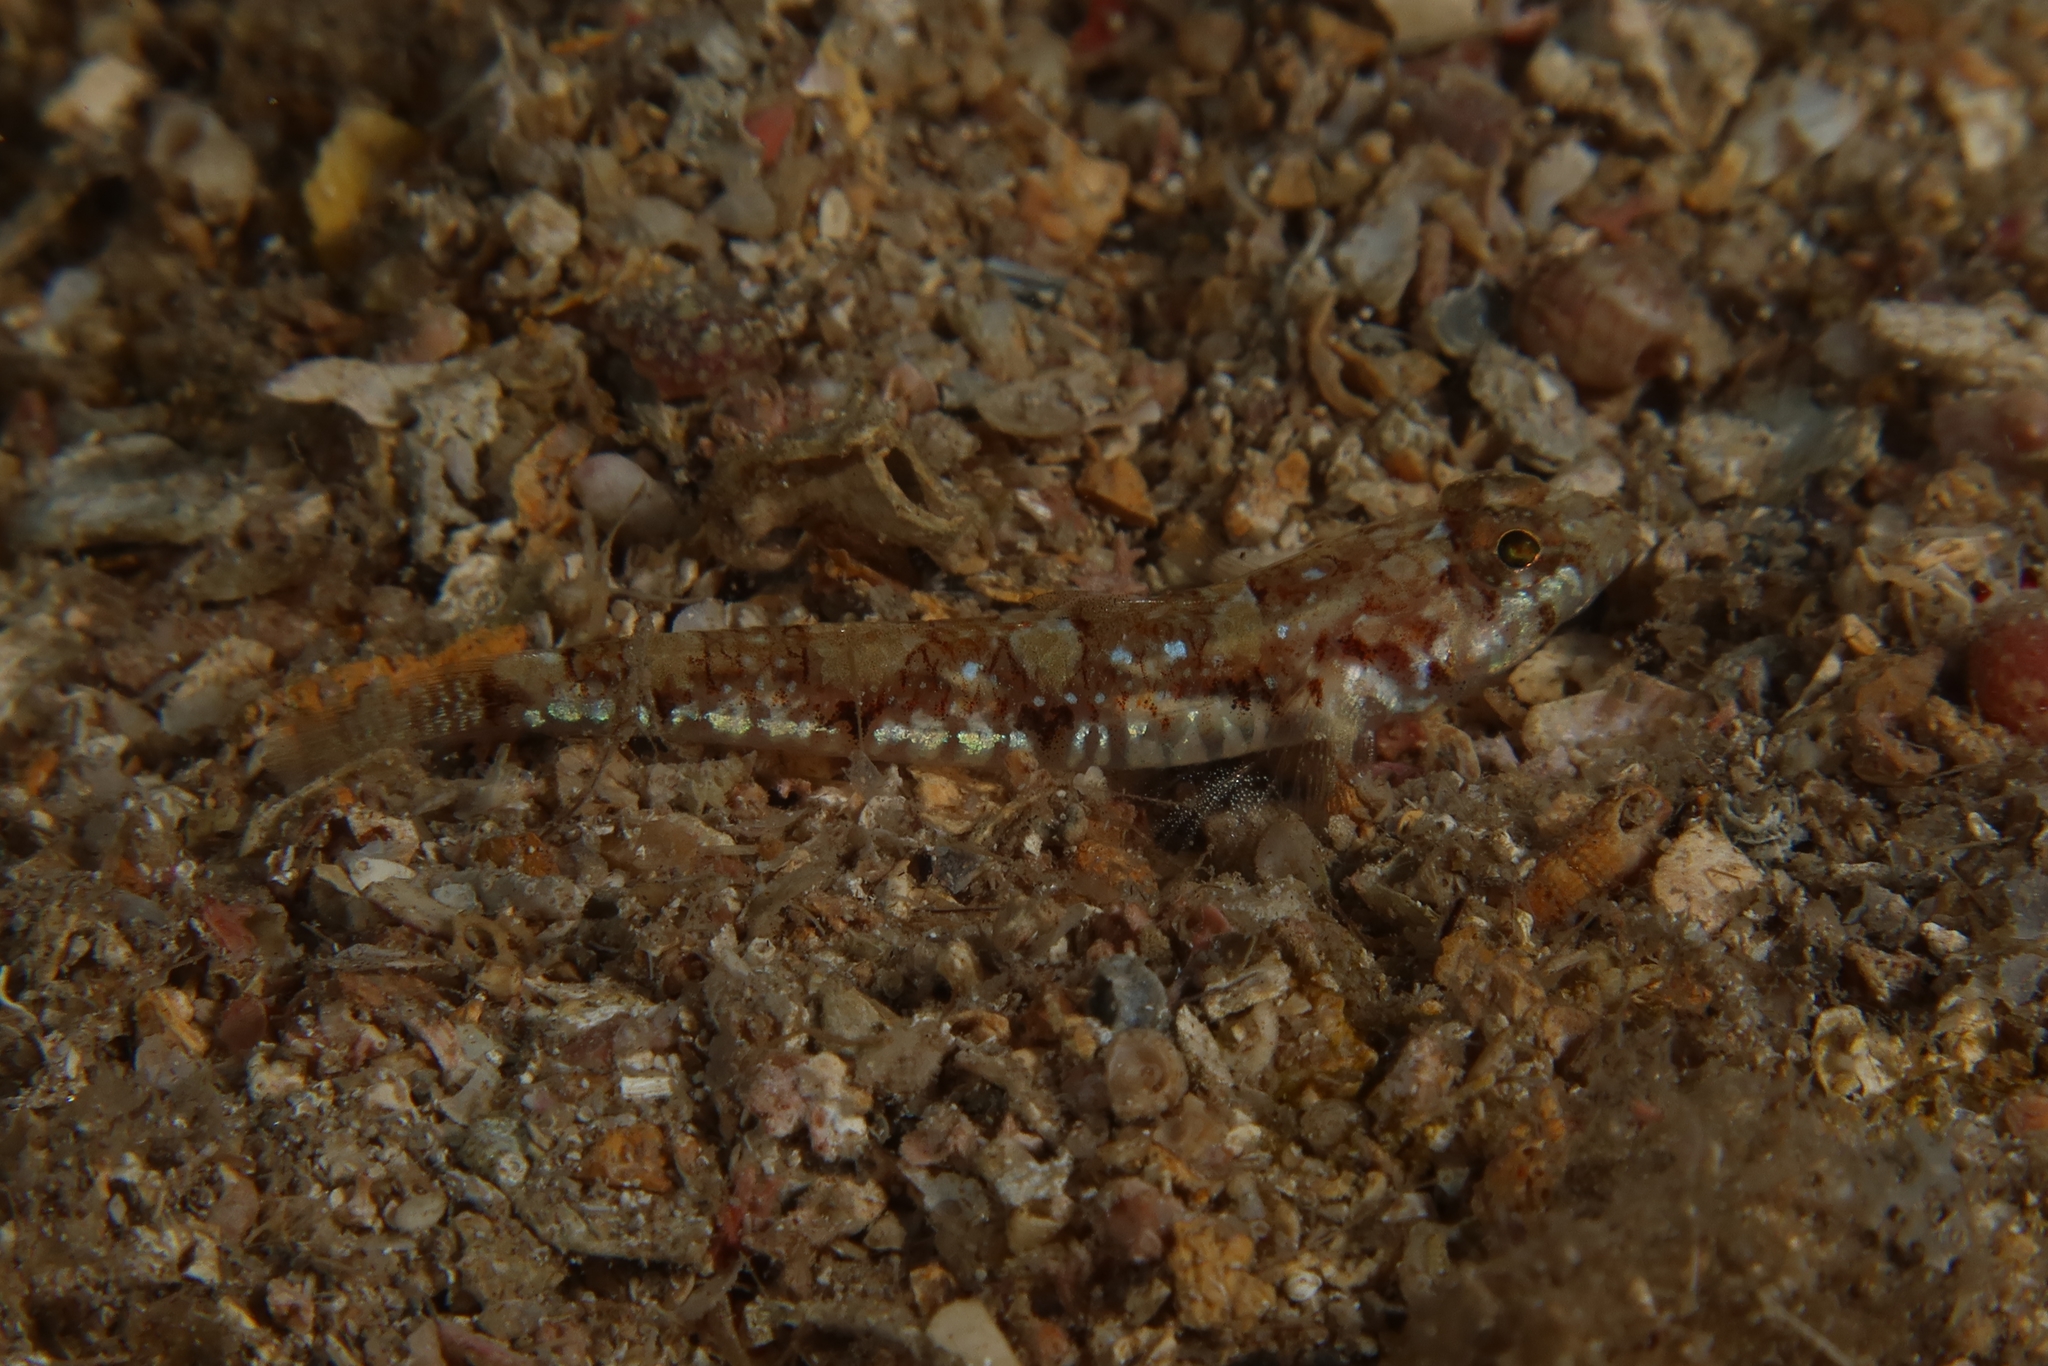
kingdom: Animalia
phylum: Chordata
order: Perciformes
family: Gobiidae
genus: Buenia
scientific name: Buenia affinis
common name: De buen's goby
